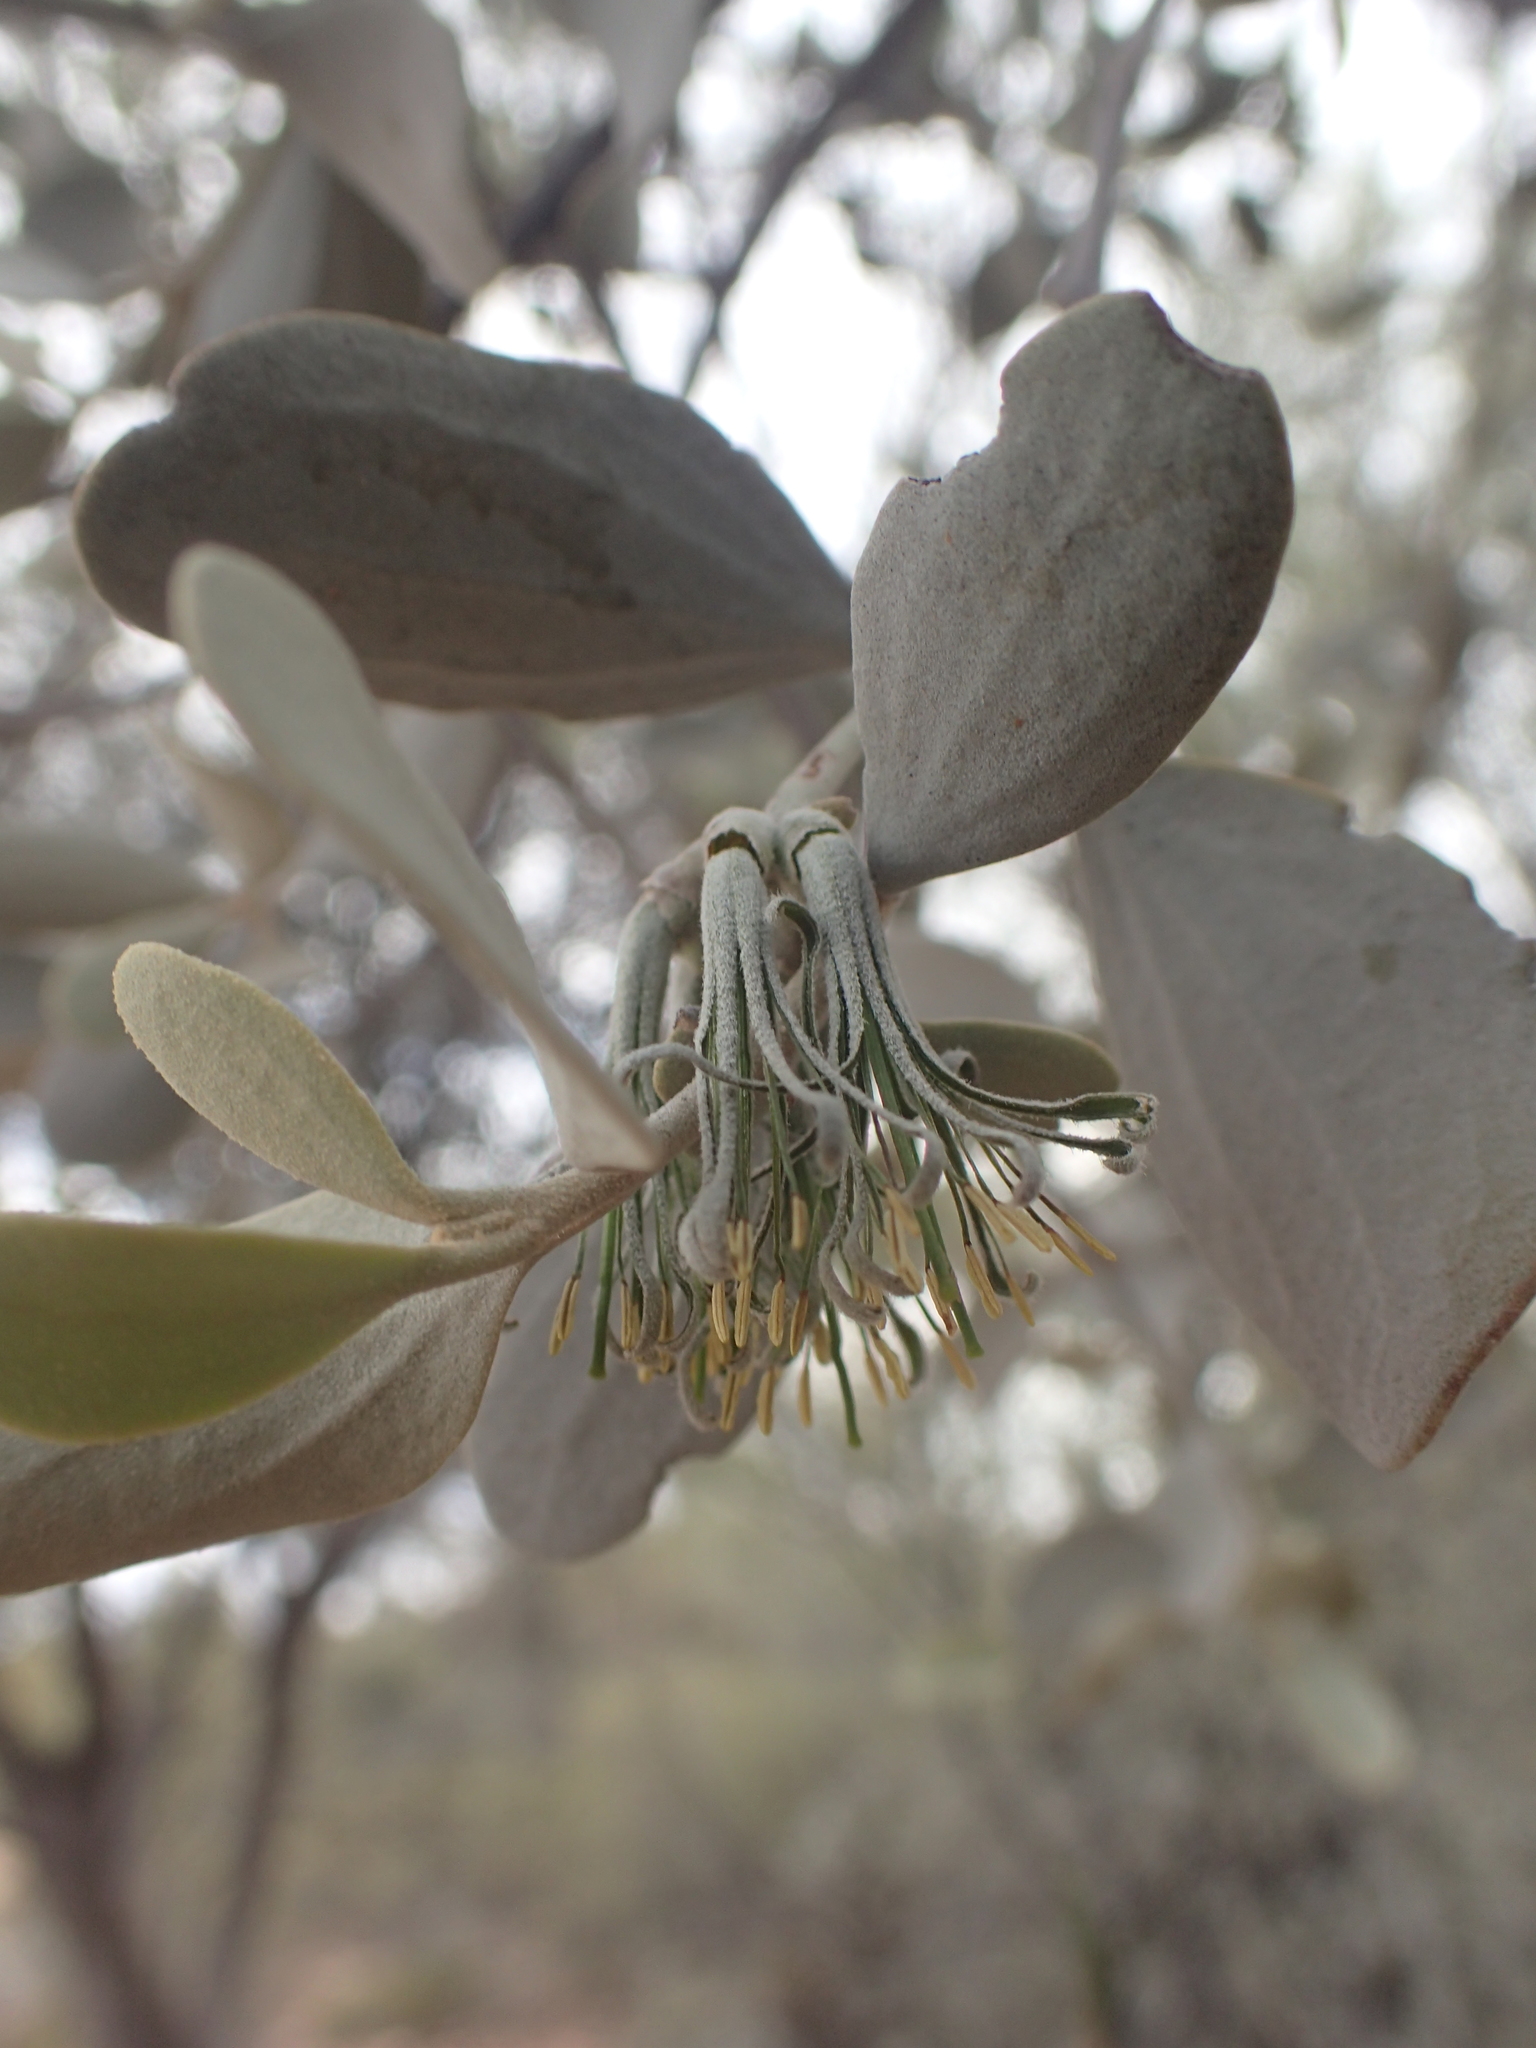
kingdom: Plantae
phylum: Tracheophyta
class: Magnoliopsida
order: Santalales
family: Loranthaceae
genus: Amyema
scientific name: Amyema maidenii
